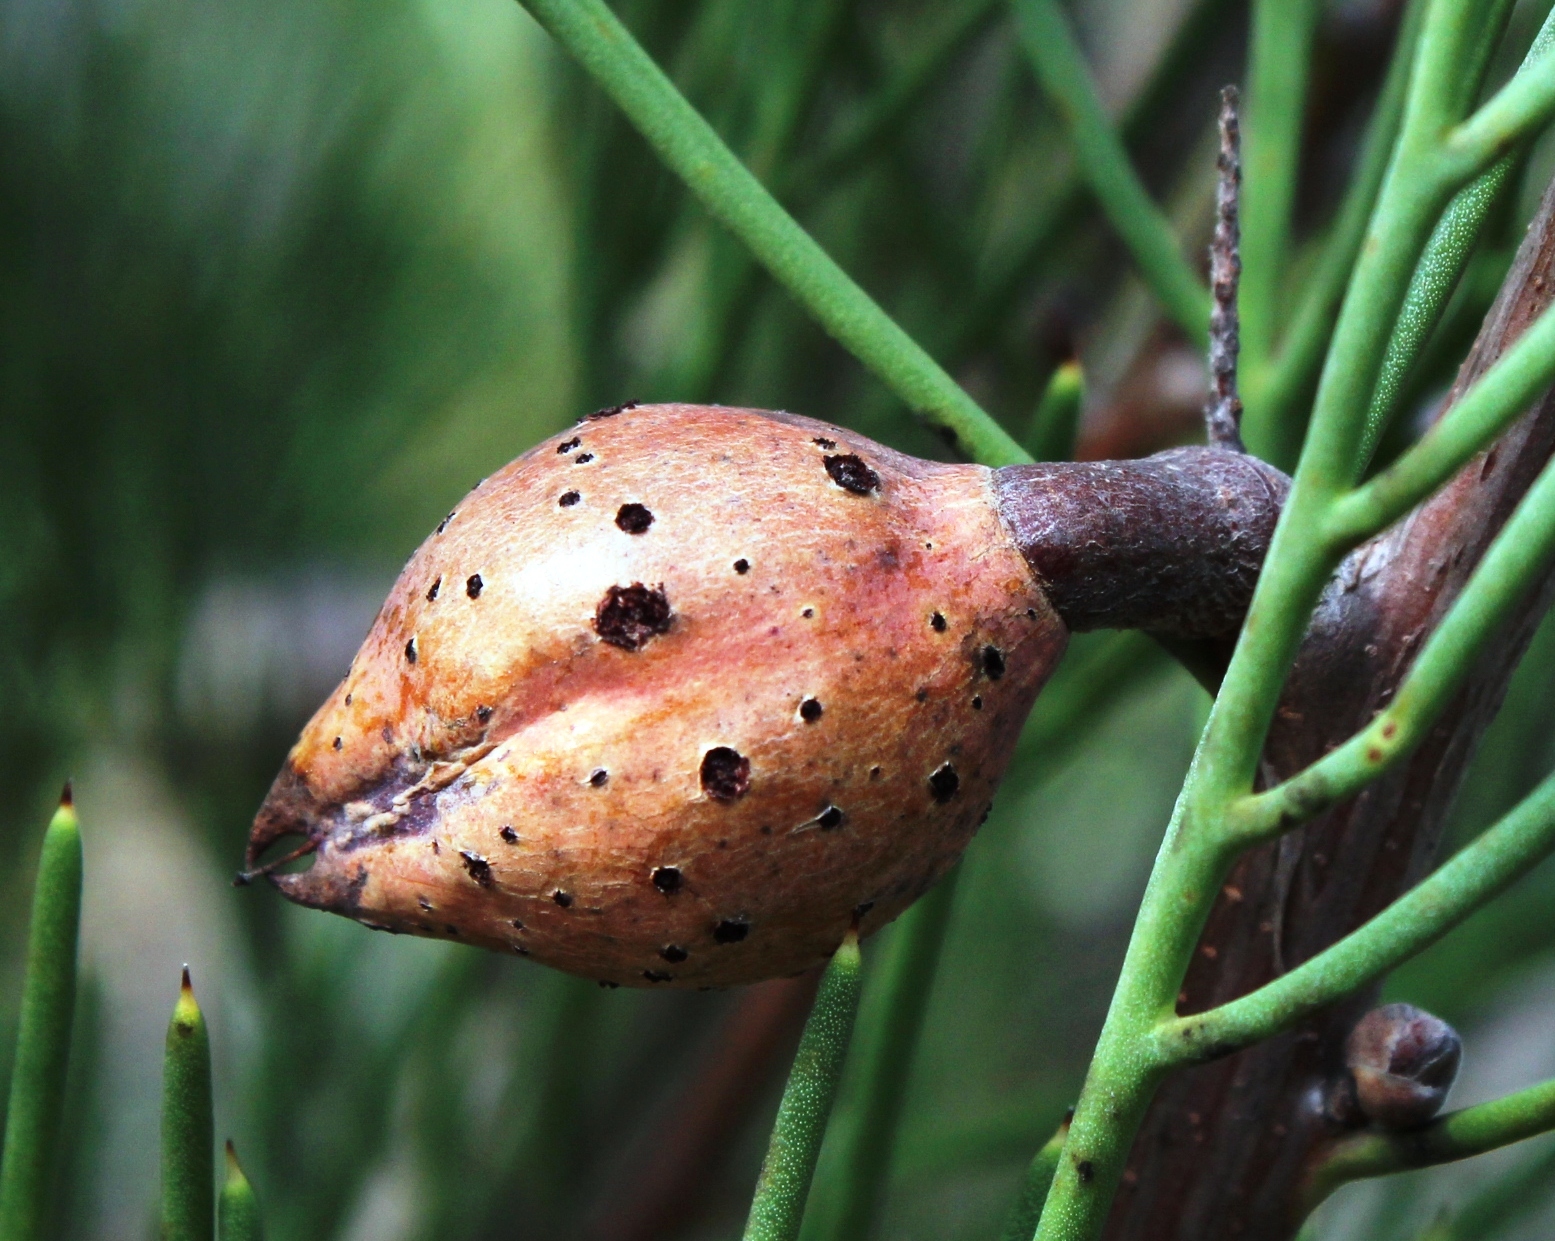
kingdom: Plantae
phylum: Tracheophyta
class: Magnoliopsida
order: Proteales
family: Proteaceae
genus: Hakea
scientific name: Hakea drupacea
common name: Sweet hakea
